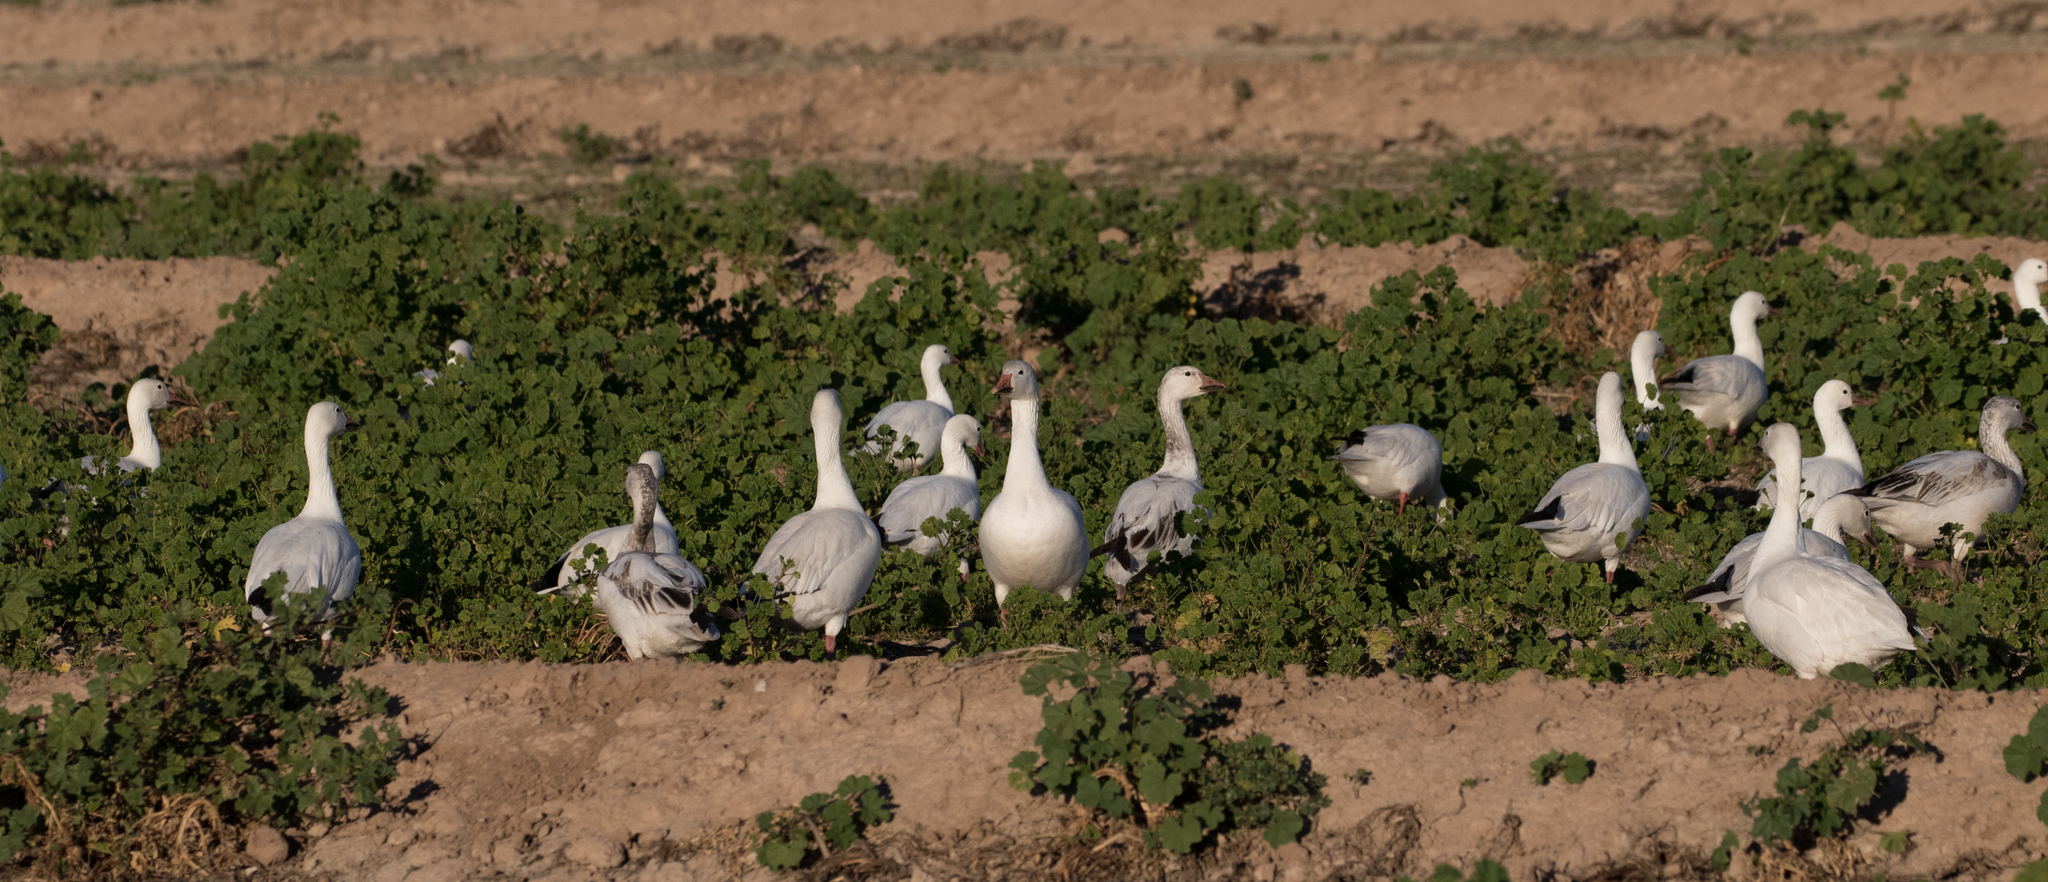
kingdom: Animalia
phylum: Chordata
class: Aves
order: Anseriformes
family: Anatidae
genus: Anser
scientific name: Anser caerulescens
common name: Snow goose
